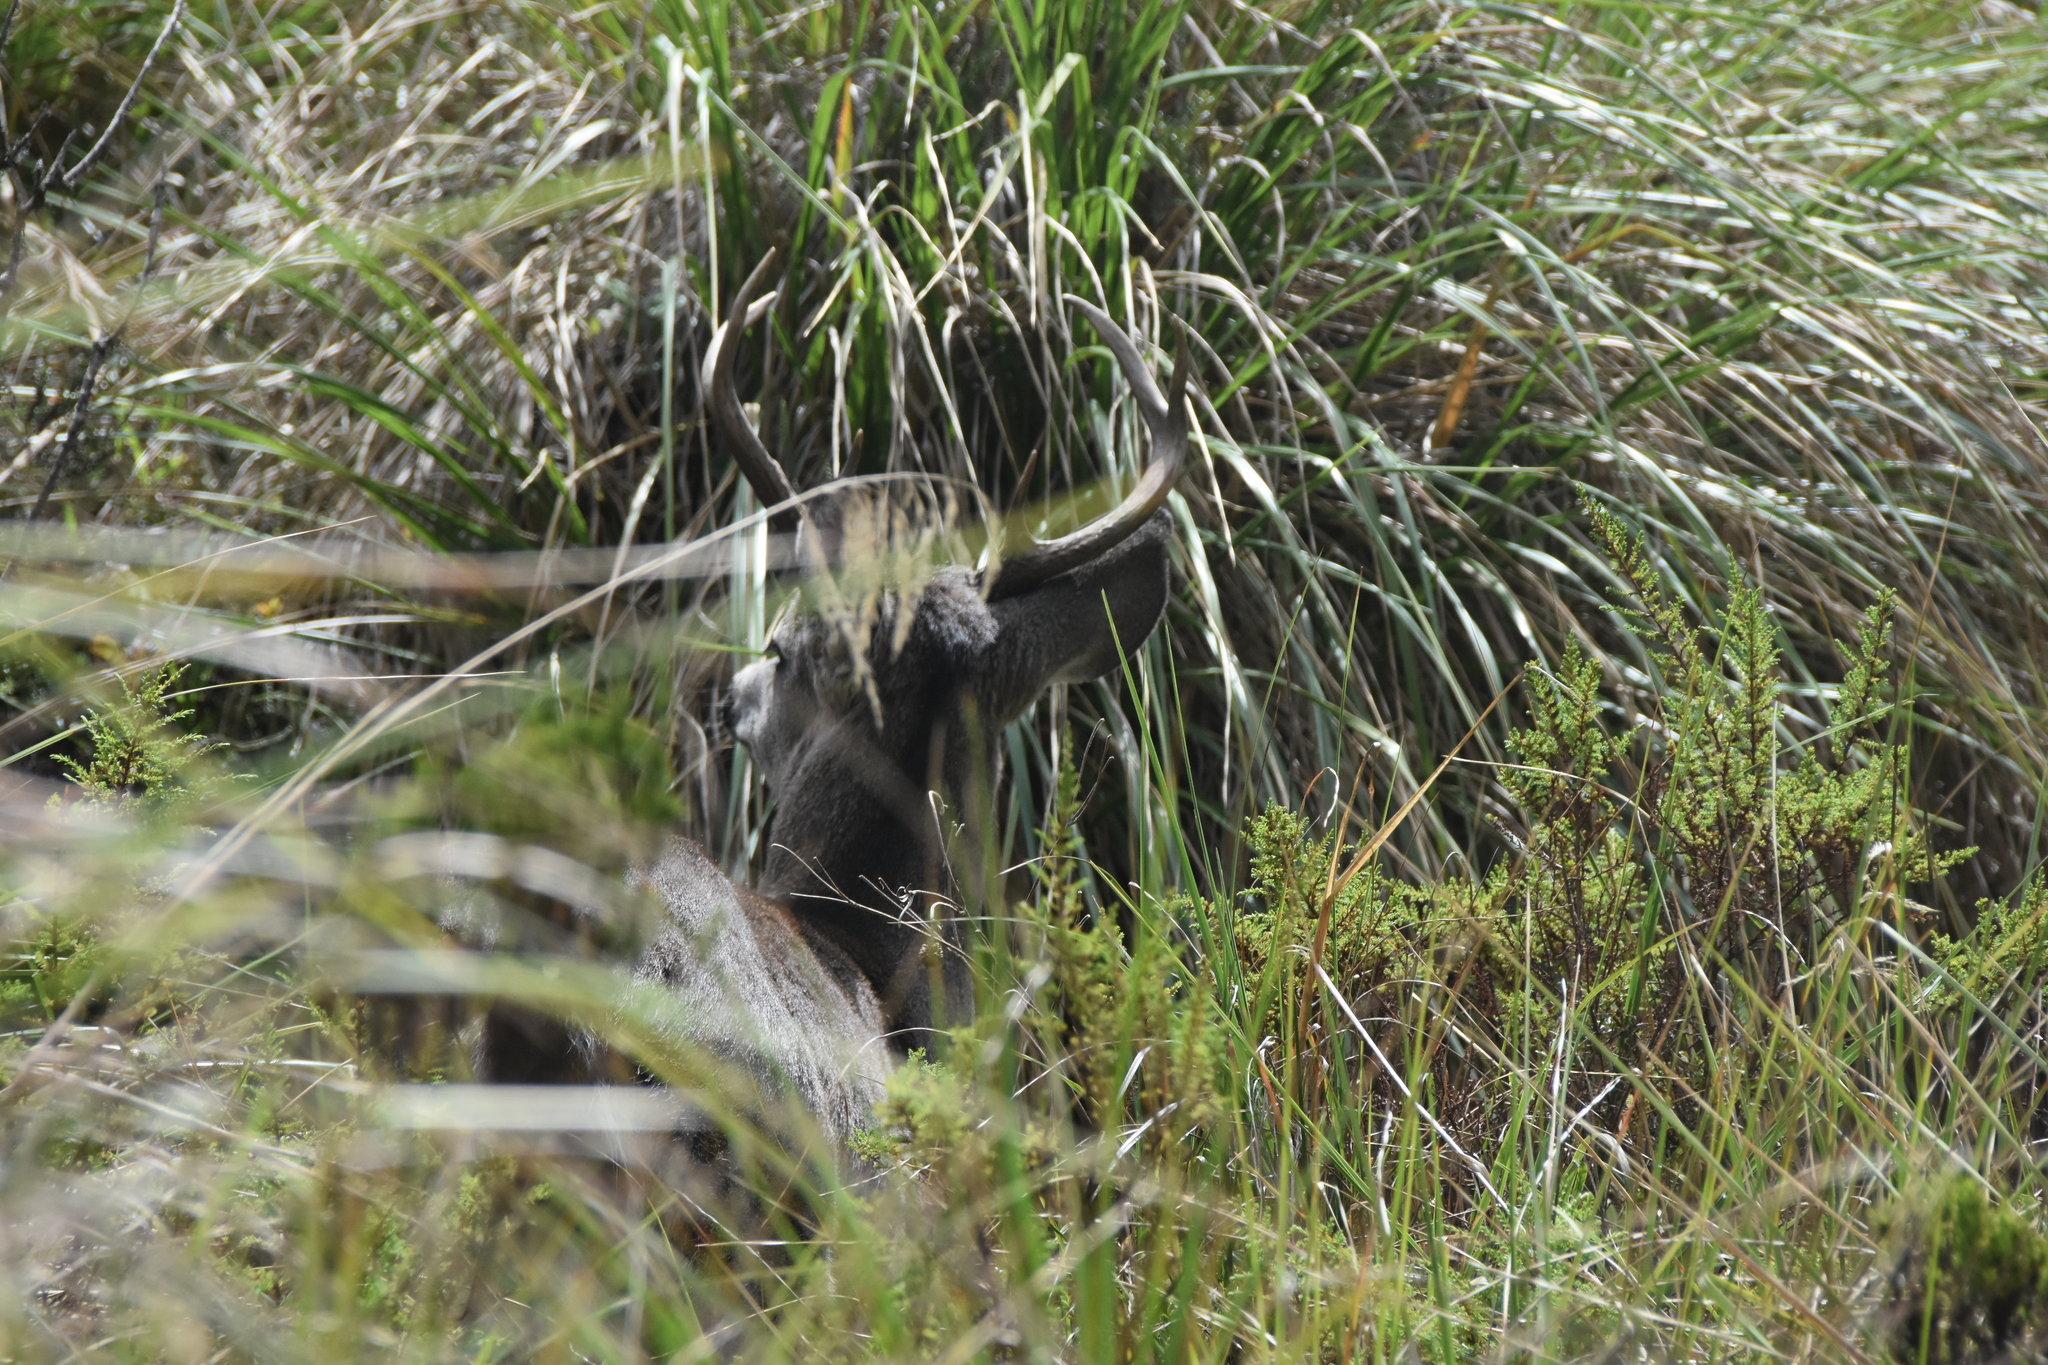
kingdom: Animalia
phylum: Chordata
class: Mammalia
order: Artiodactyla
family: Cervidae
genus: Odocoileus
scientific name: Odocoileus virginianus
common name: White-tailed deer
